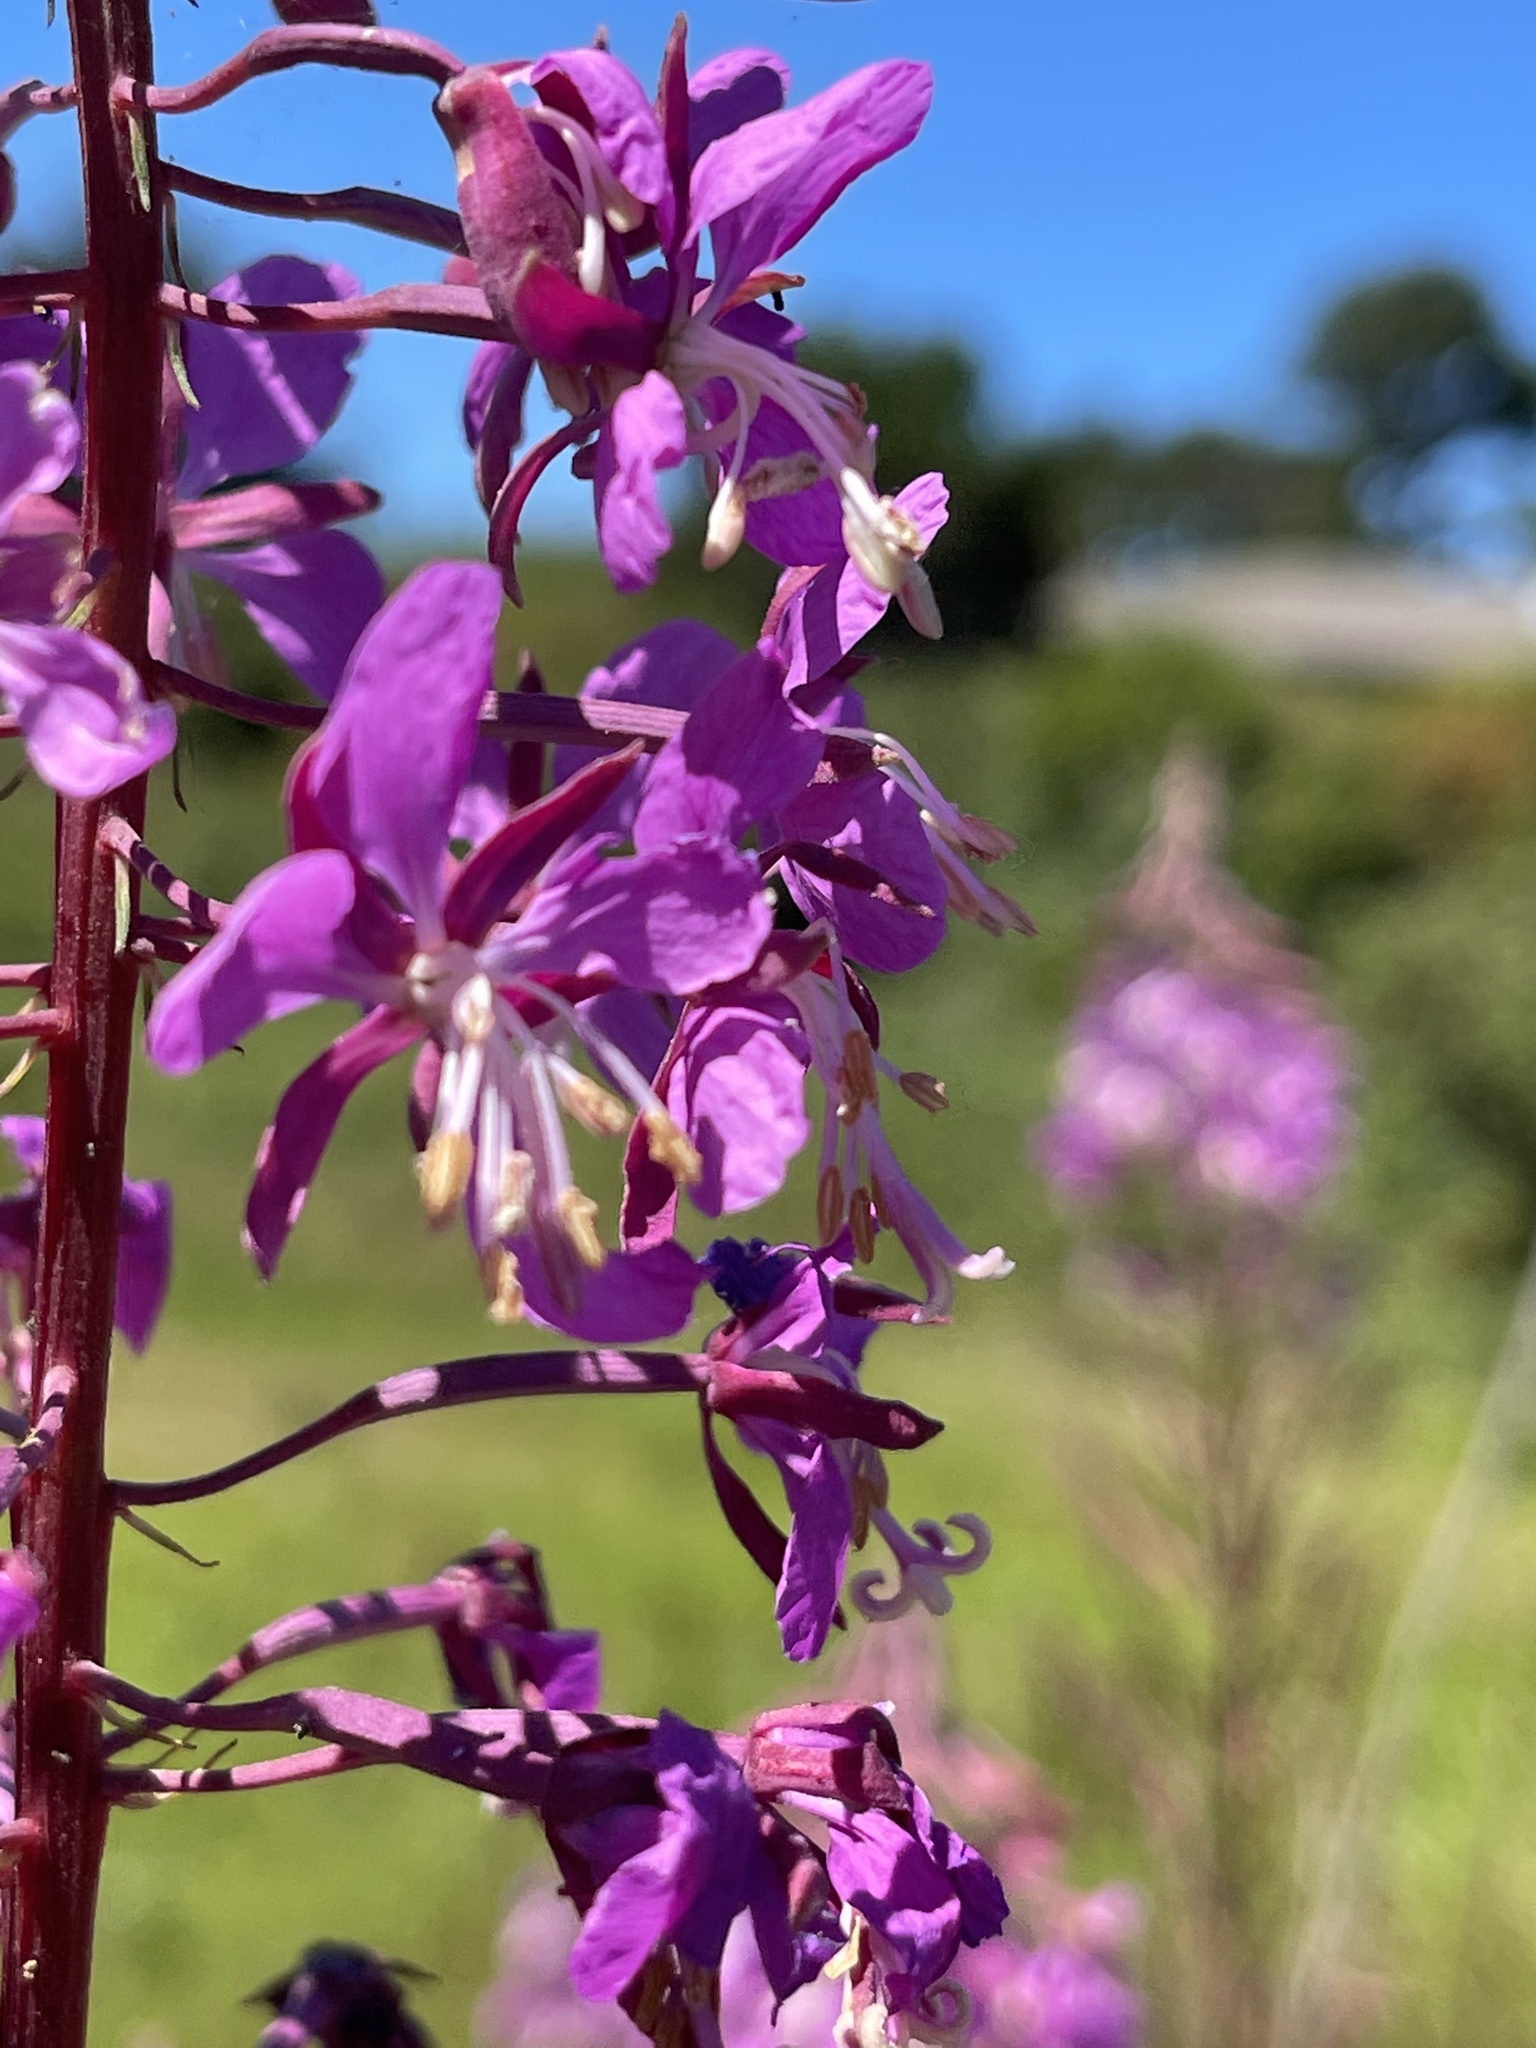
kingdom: Plantae
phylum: Tracheophyta
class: Magnoliopsida
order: Myrtales
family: Onagraceae
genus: Chamaenerion
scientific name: Chamaenerion angustifolium
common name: Fireweed
